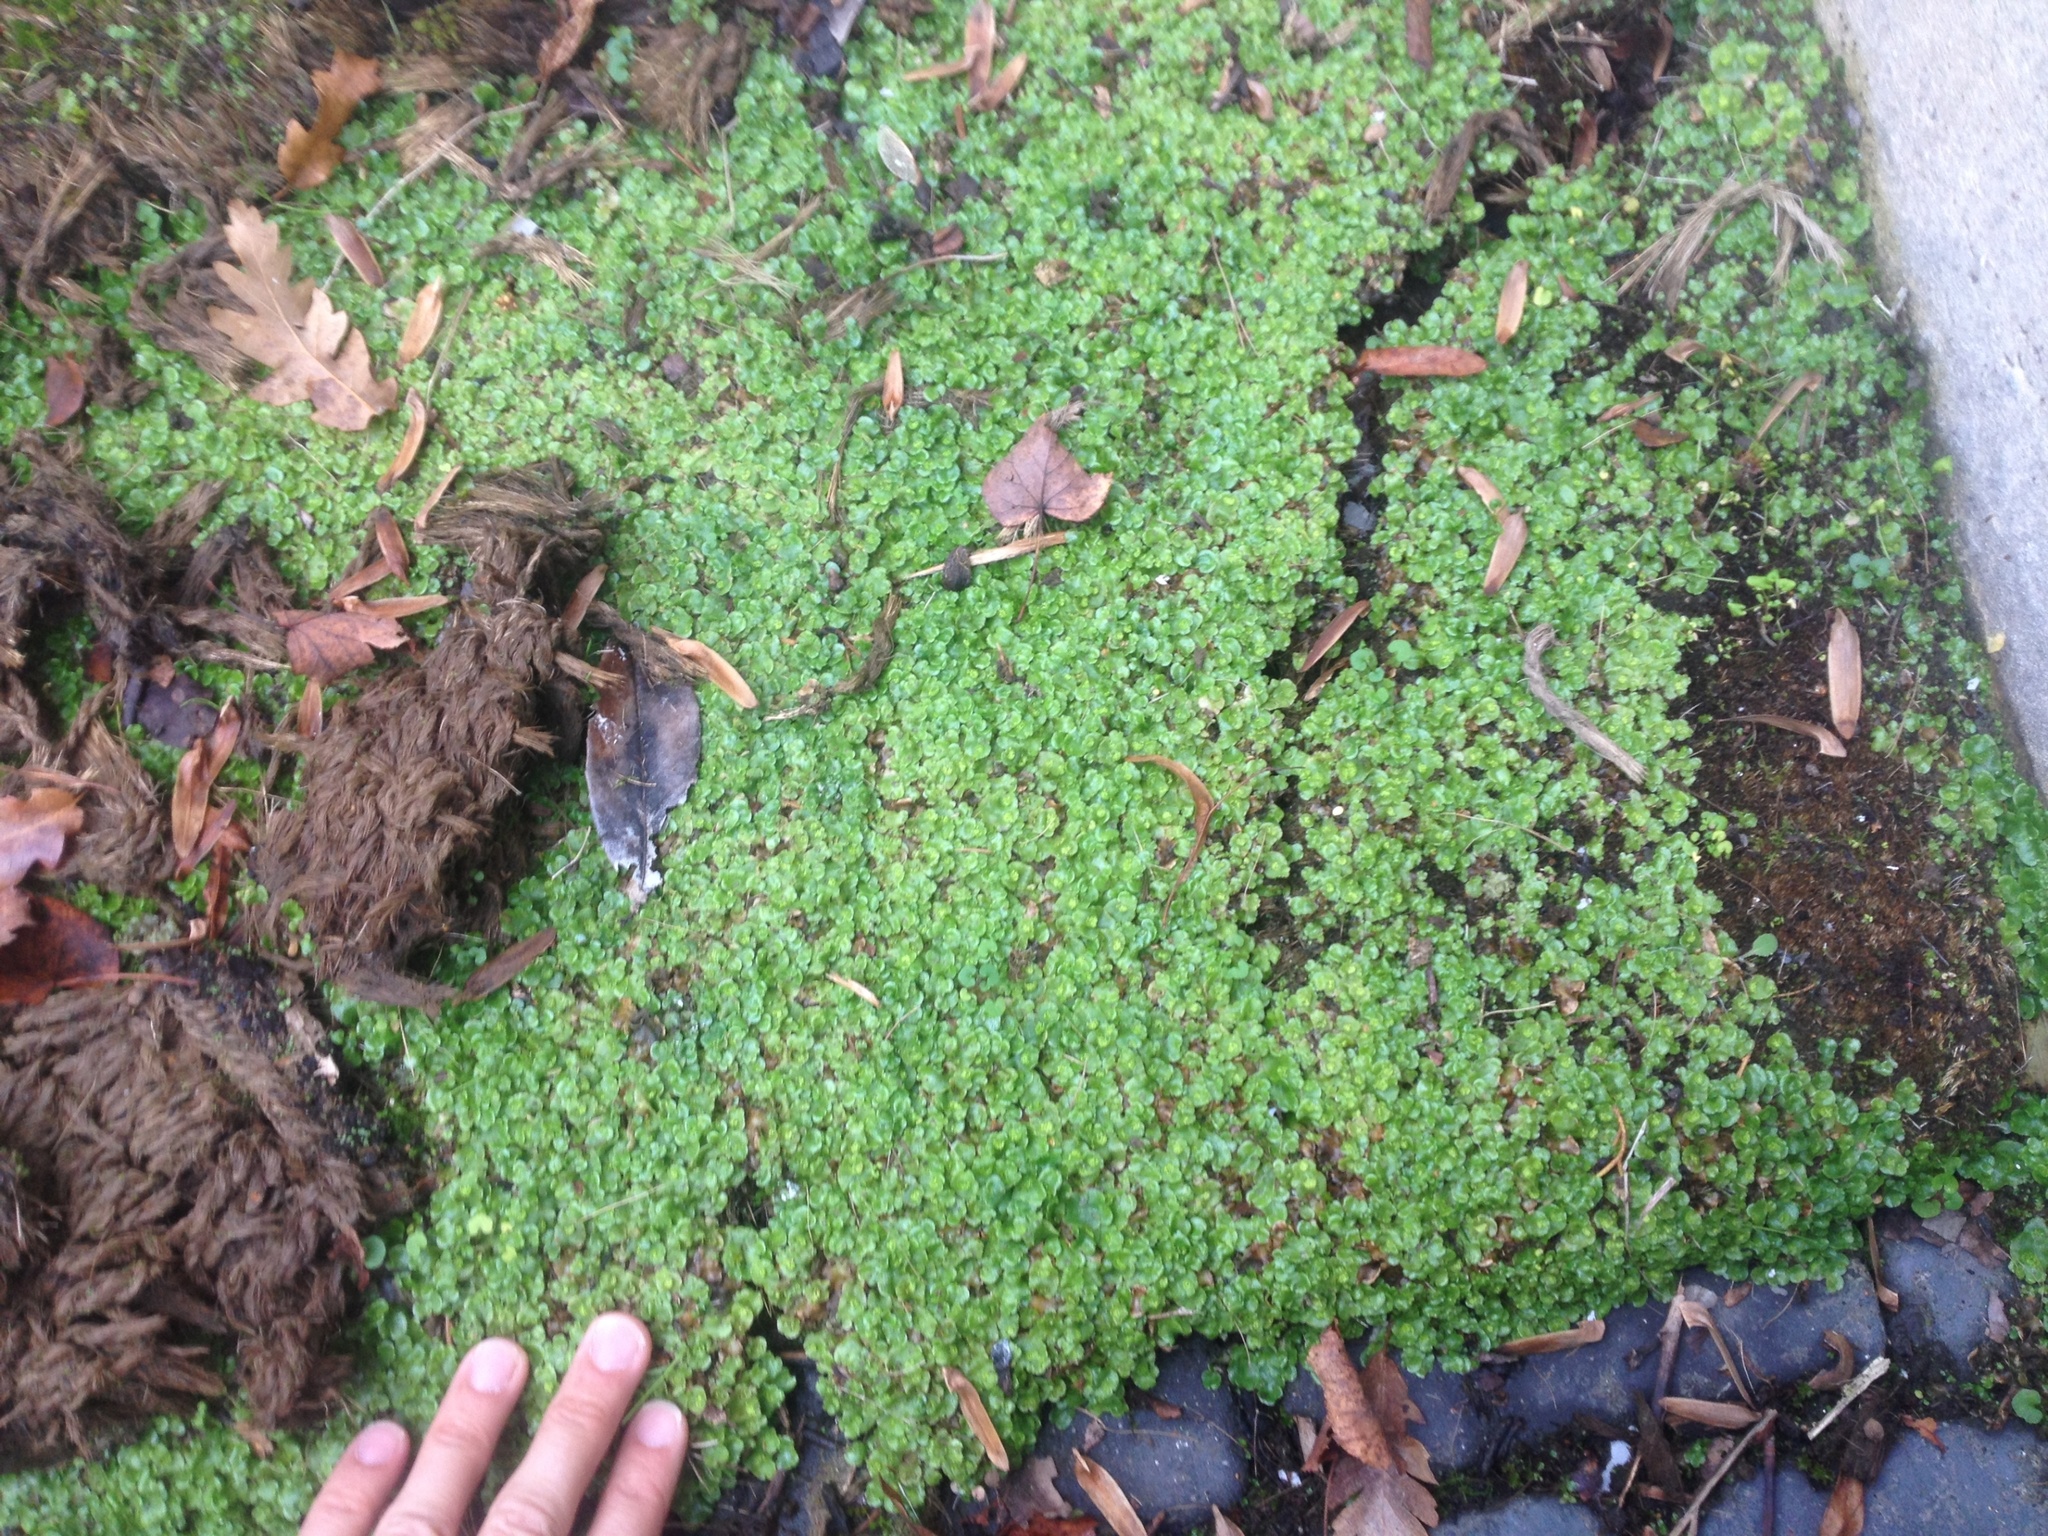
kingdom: Plantae
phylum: Marchantiophyta
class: Marchantiopsida
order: Lunulariales
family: Lunulariaceae
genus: Lunularia
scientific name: Lunularia cruciata
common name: Crescent-cup liverwort
